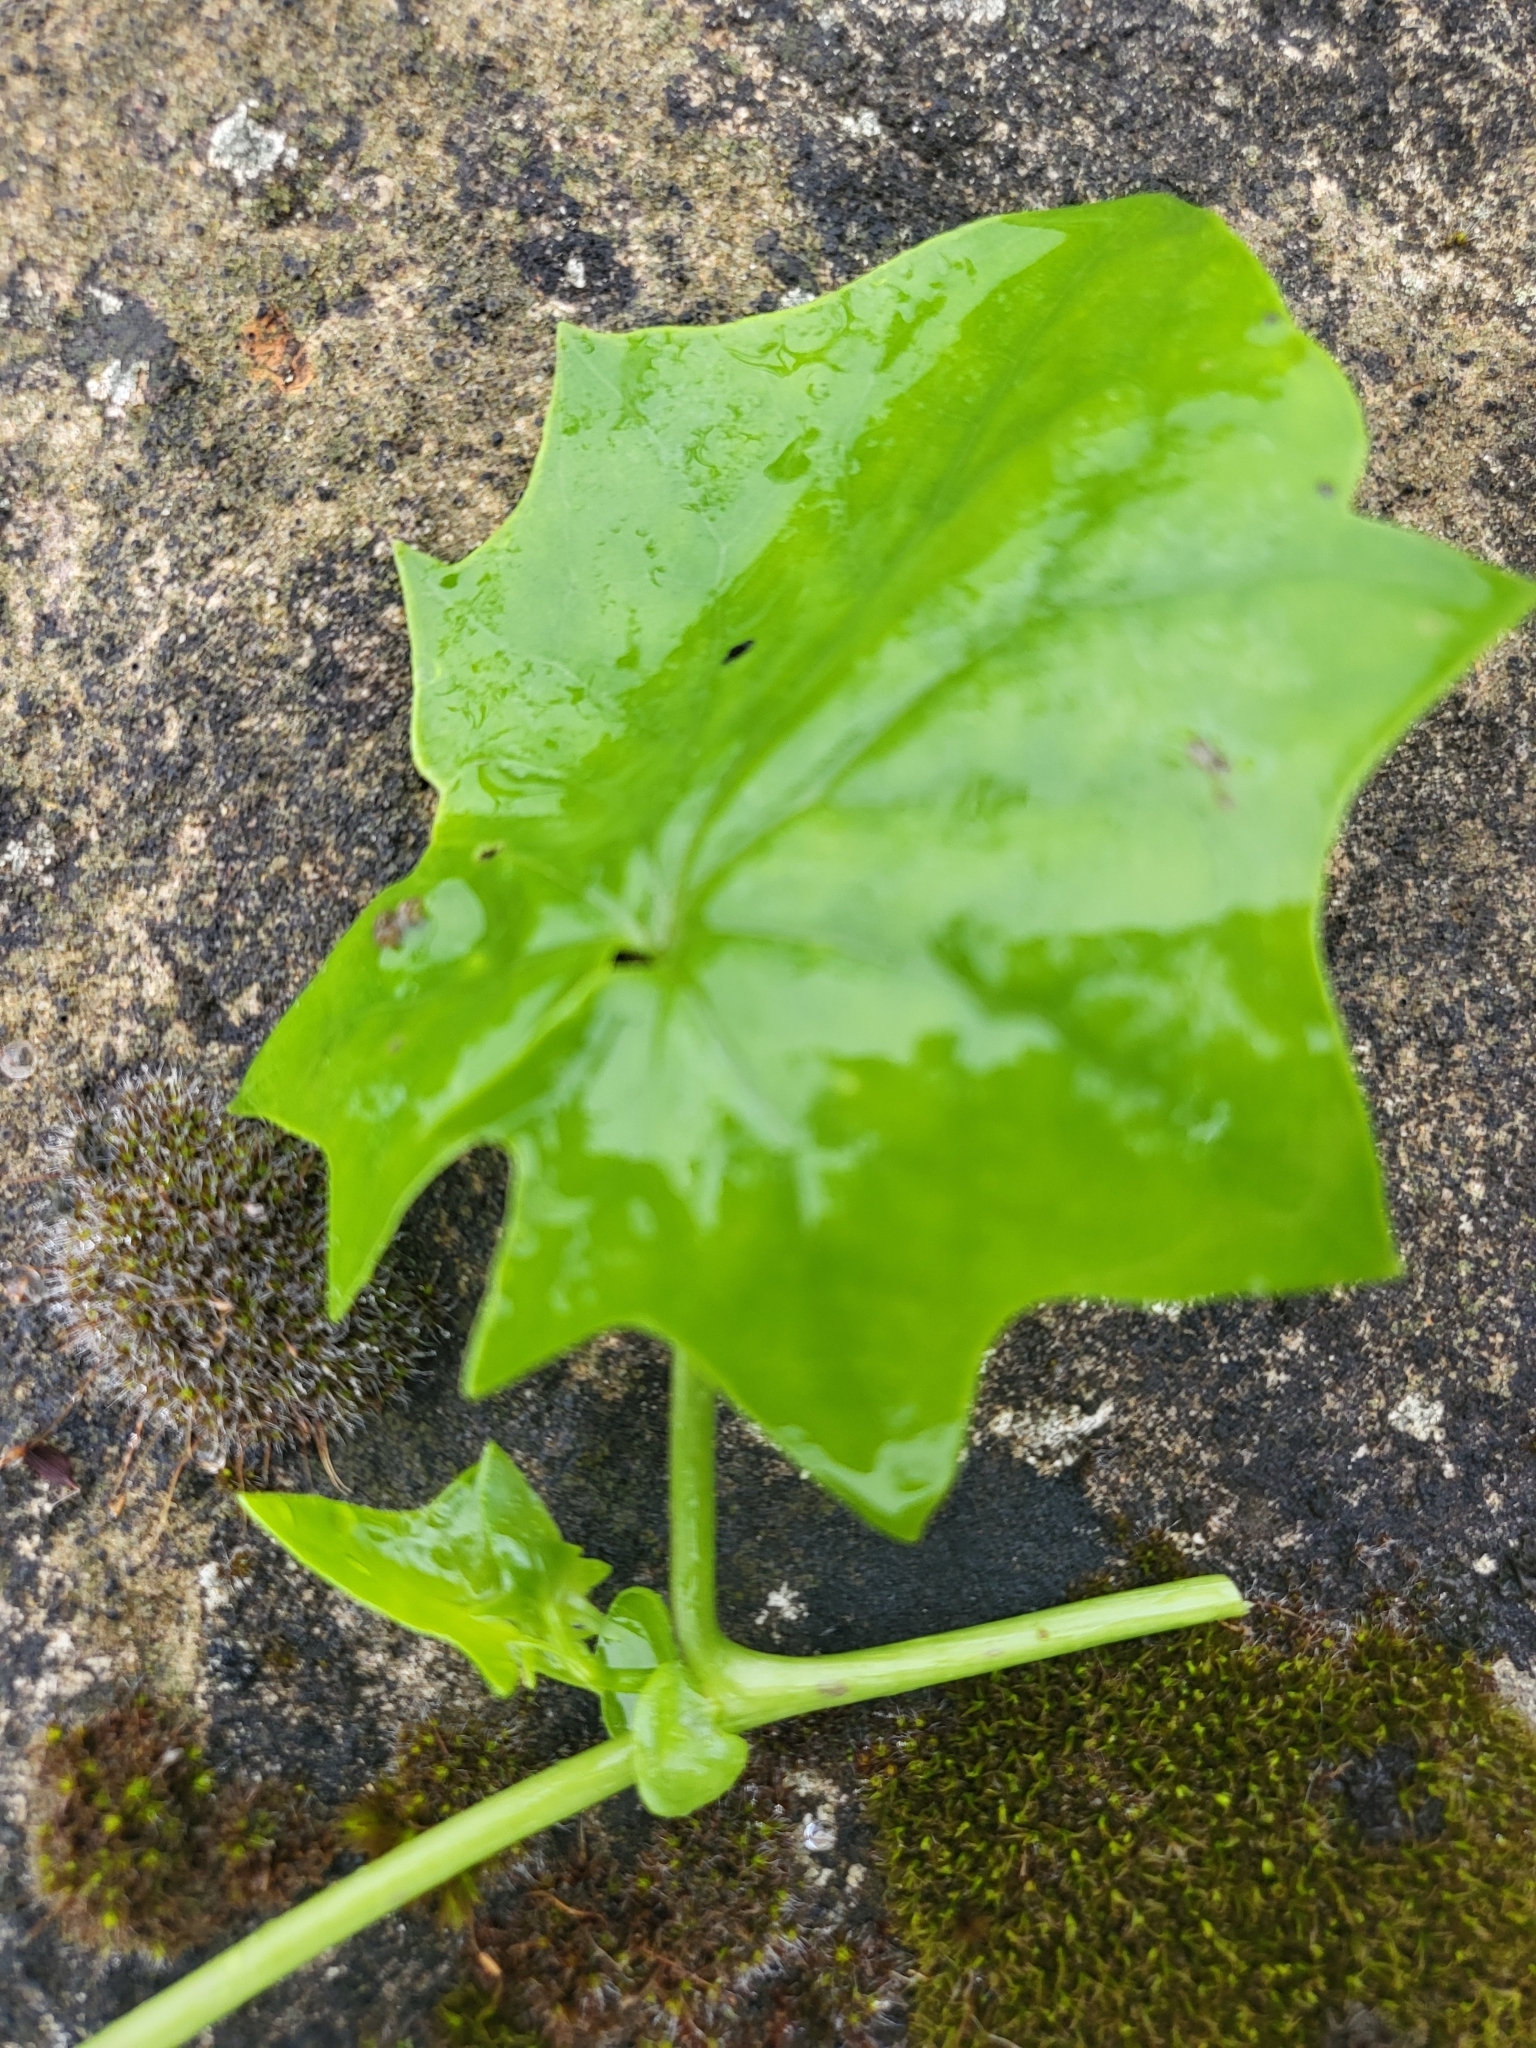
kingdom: Plantae
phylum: Tracheophyta
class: Magnoliopsida
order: Asterales
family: Asteraceae
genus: Delairea
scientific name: Delairea odorata
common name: Cape-ivy
